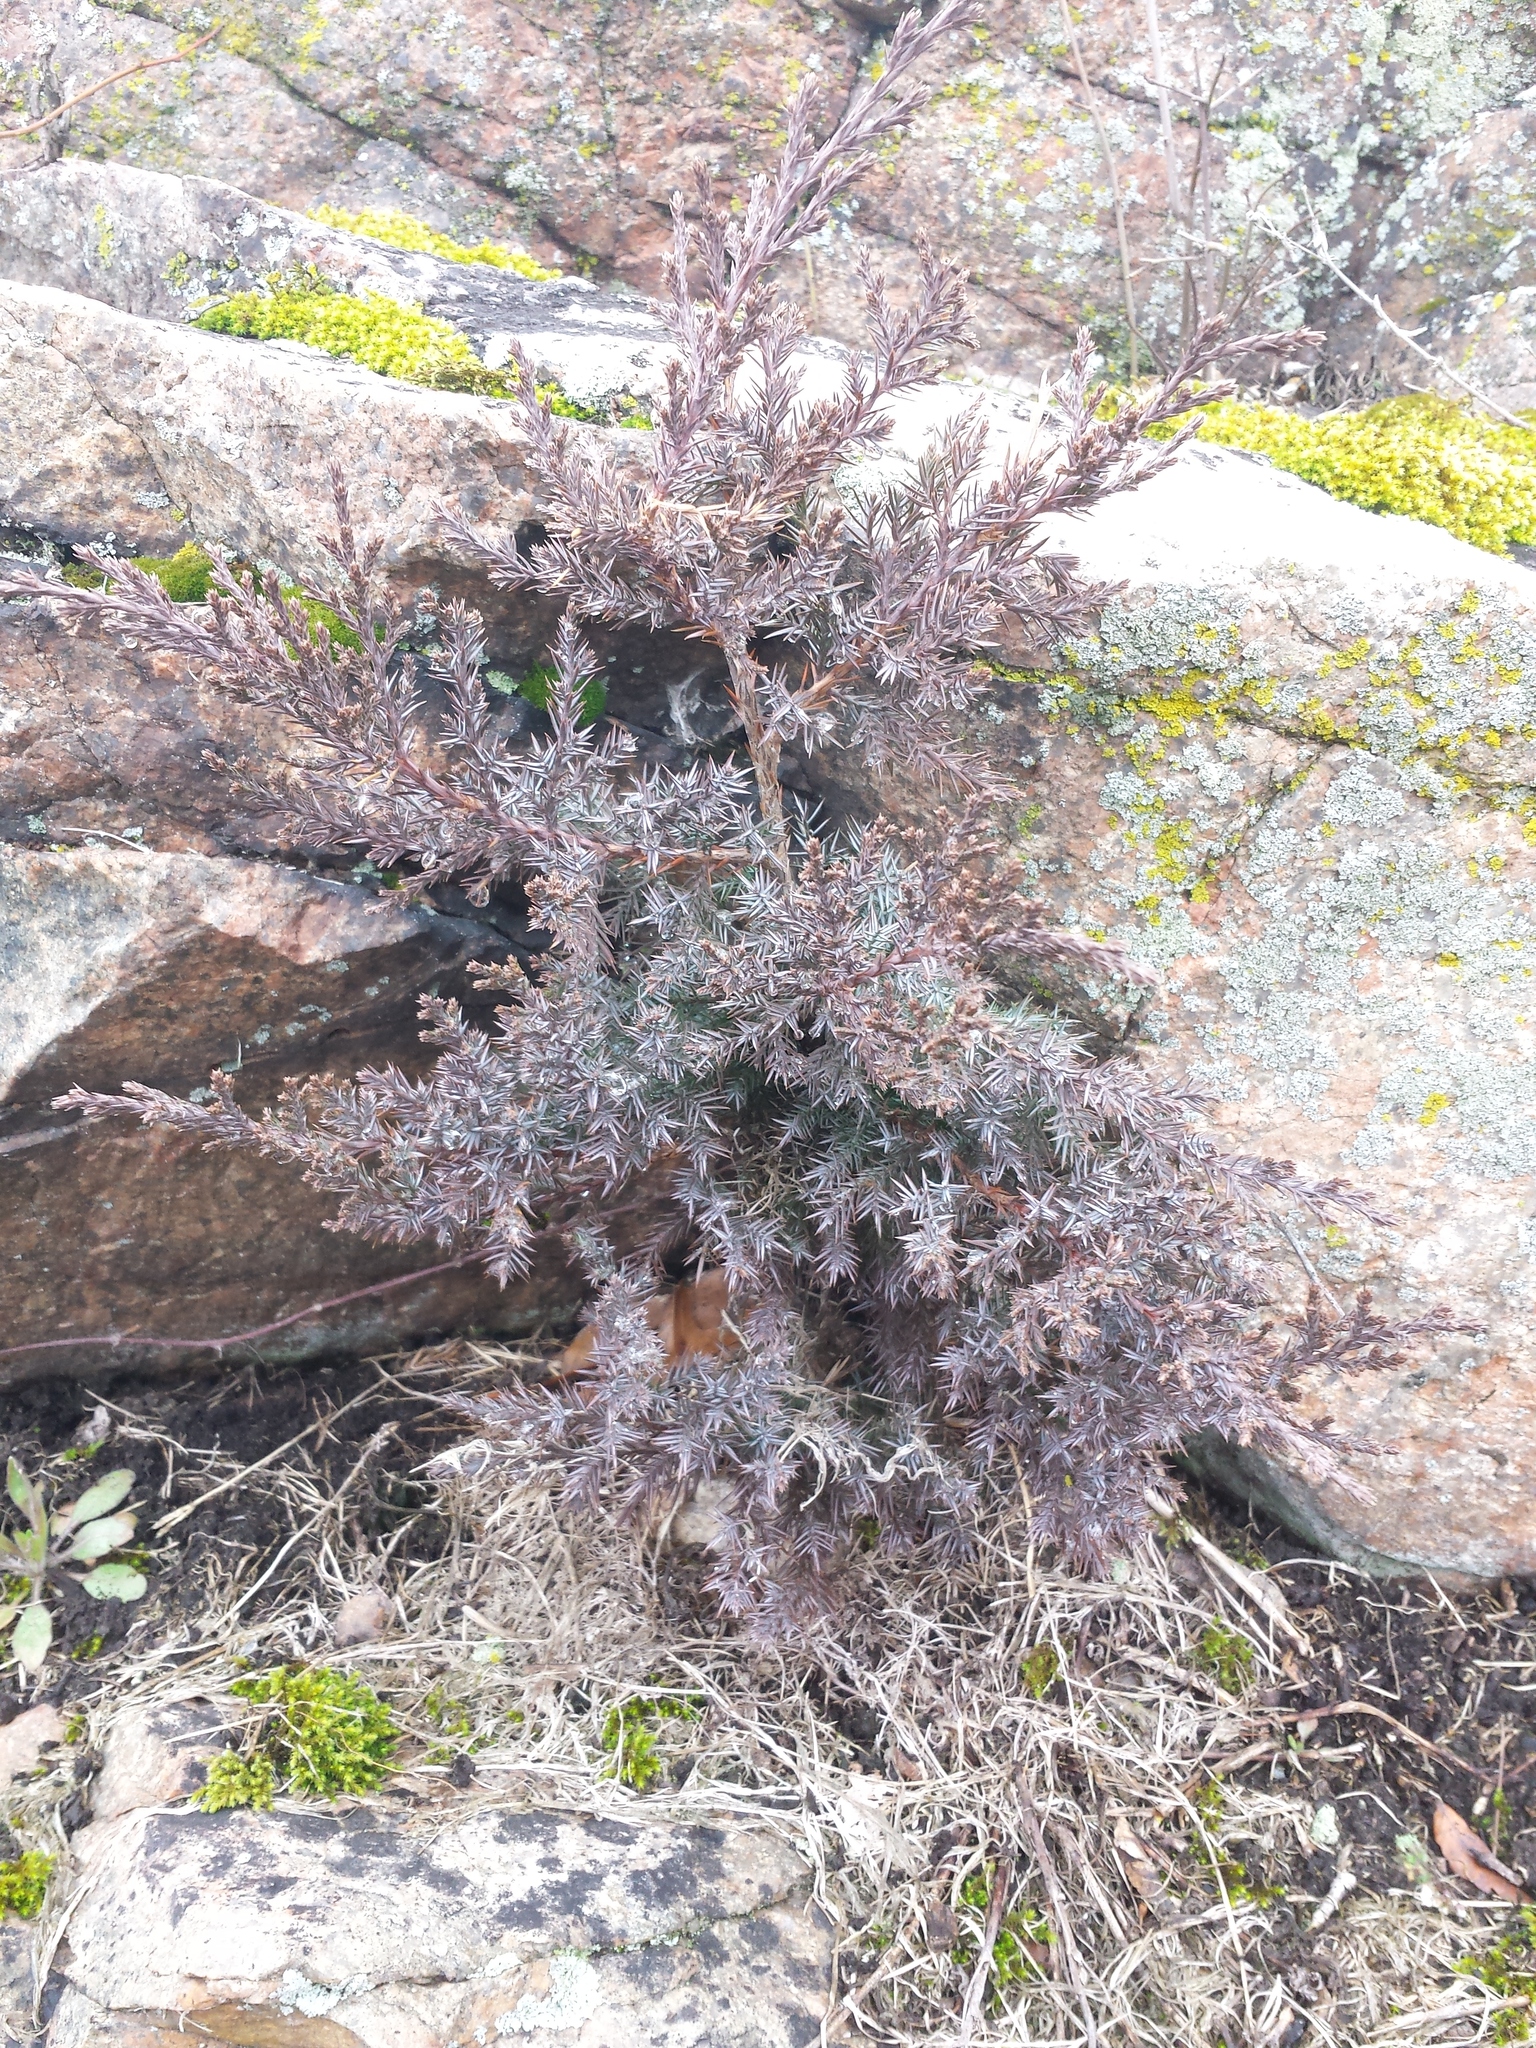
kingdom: Plantae
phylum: Tracheophyta
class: Pinopsida
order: Pinales
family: Cupressaceae
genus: Juniperus
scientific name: Juniperus virginiana
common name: Red juniper
